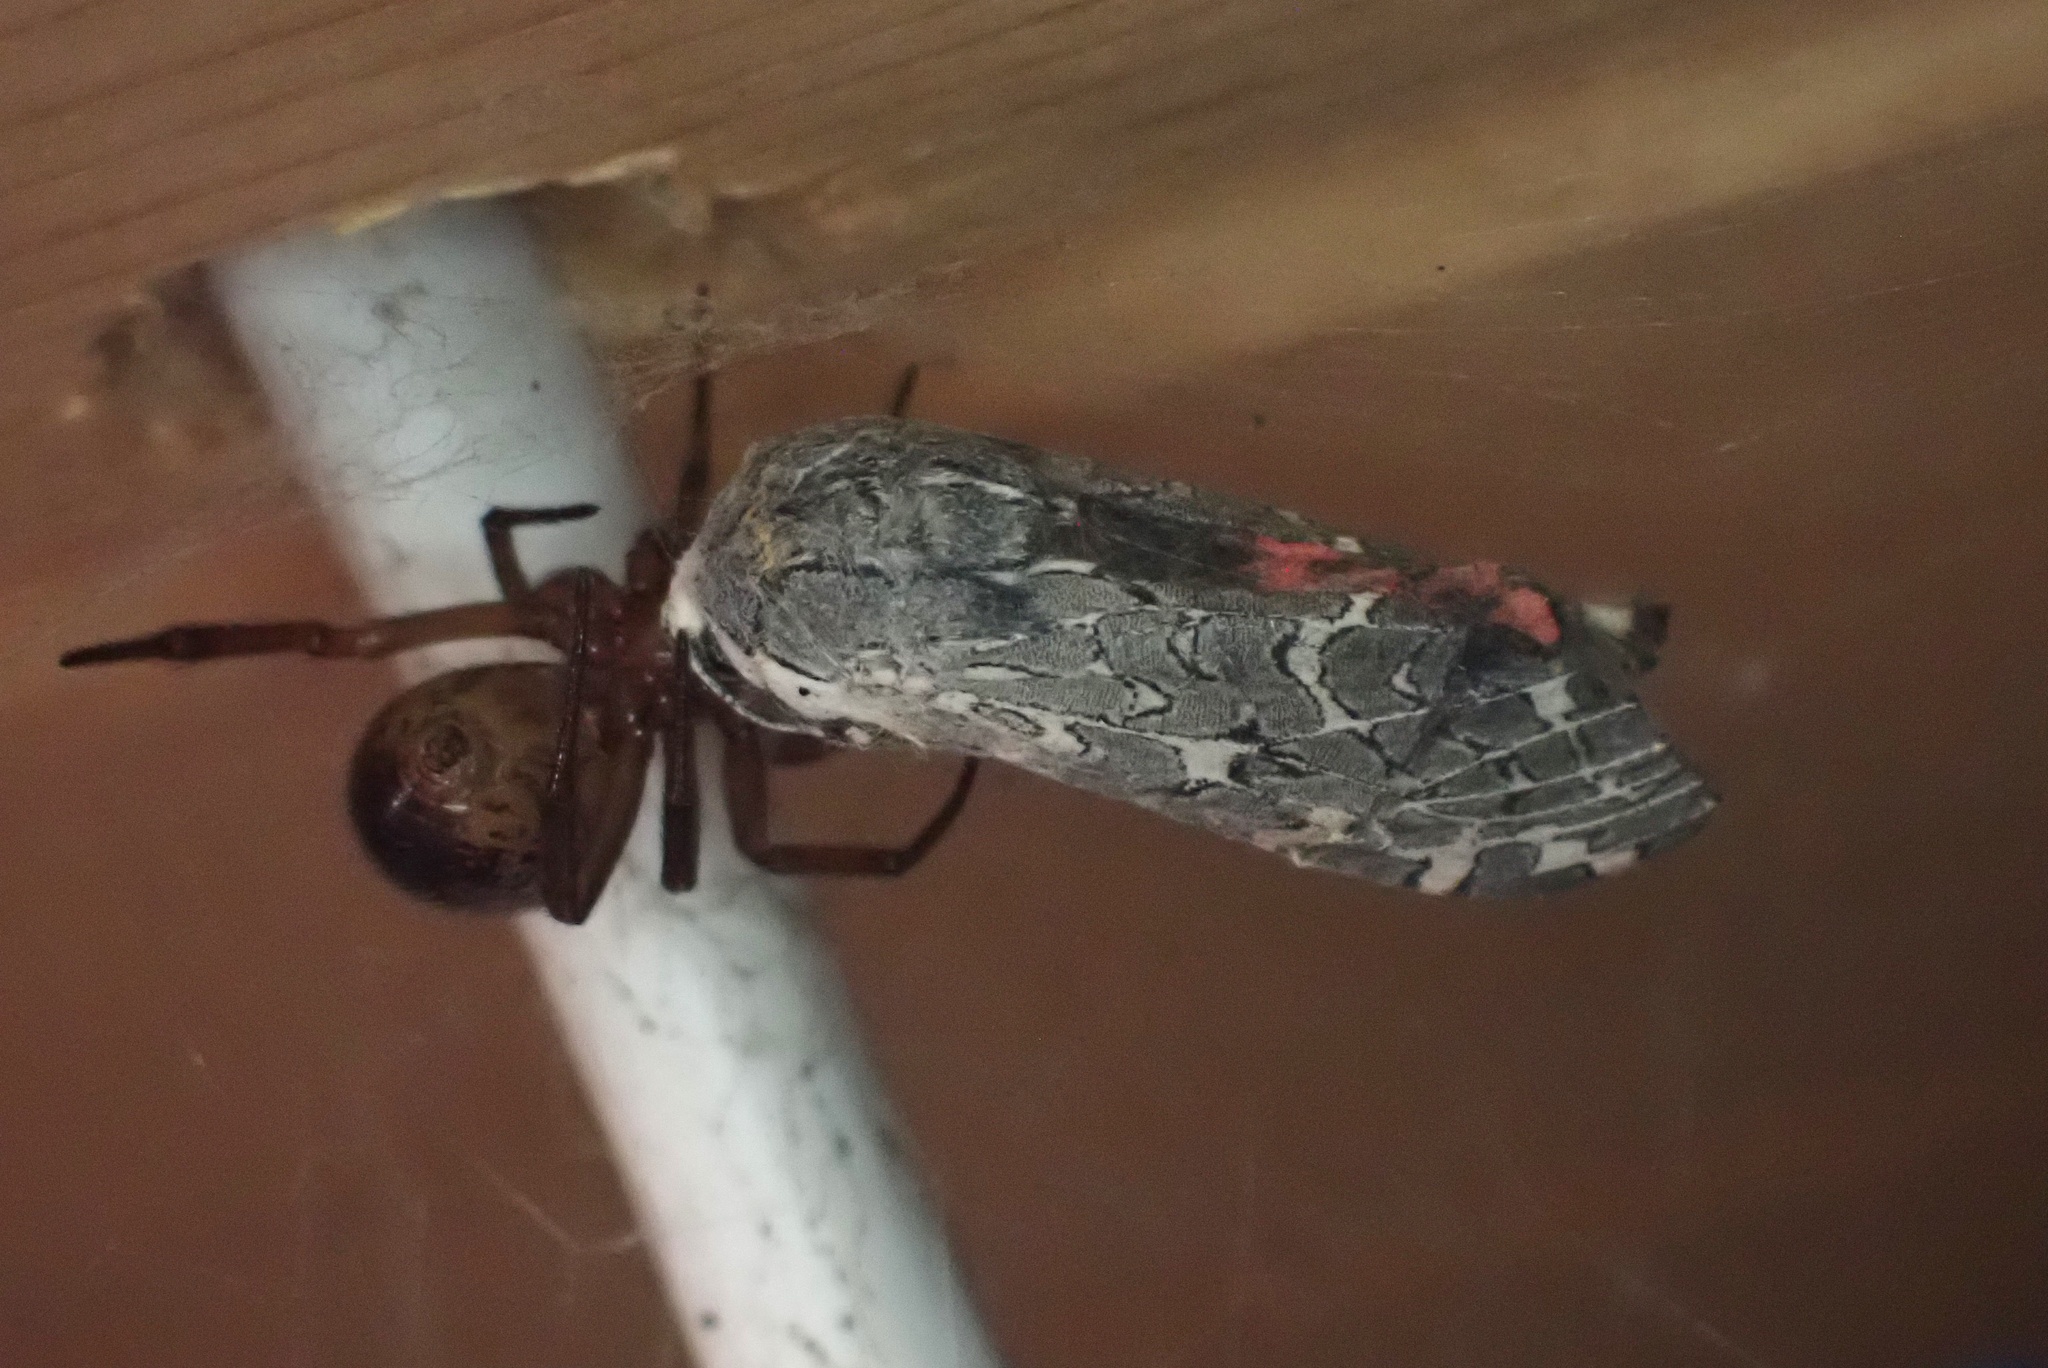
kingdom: Animalia
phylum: Arthropoda
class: Insecta
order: Lepidoptera
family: Erebidae
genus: Arachnis
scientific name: Arachnis picta
